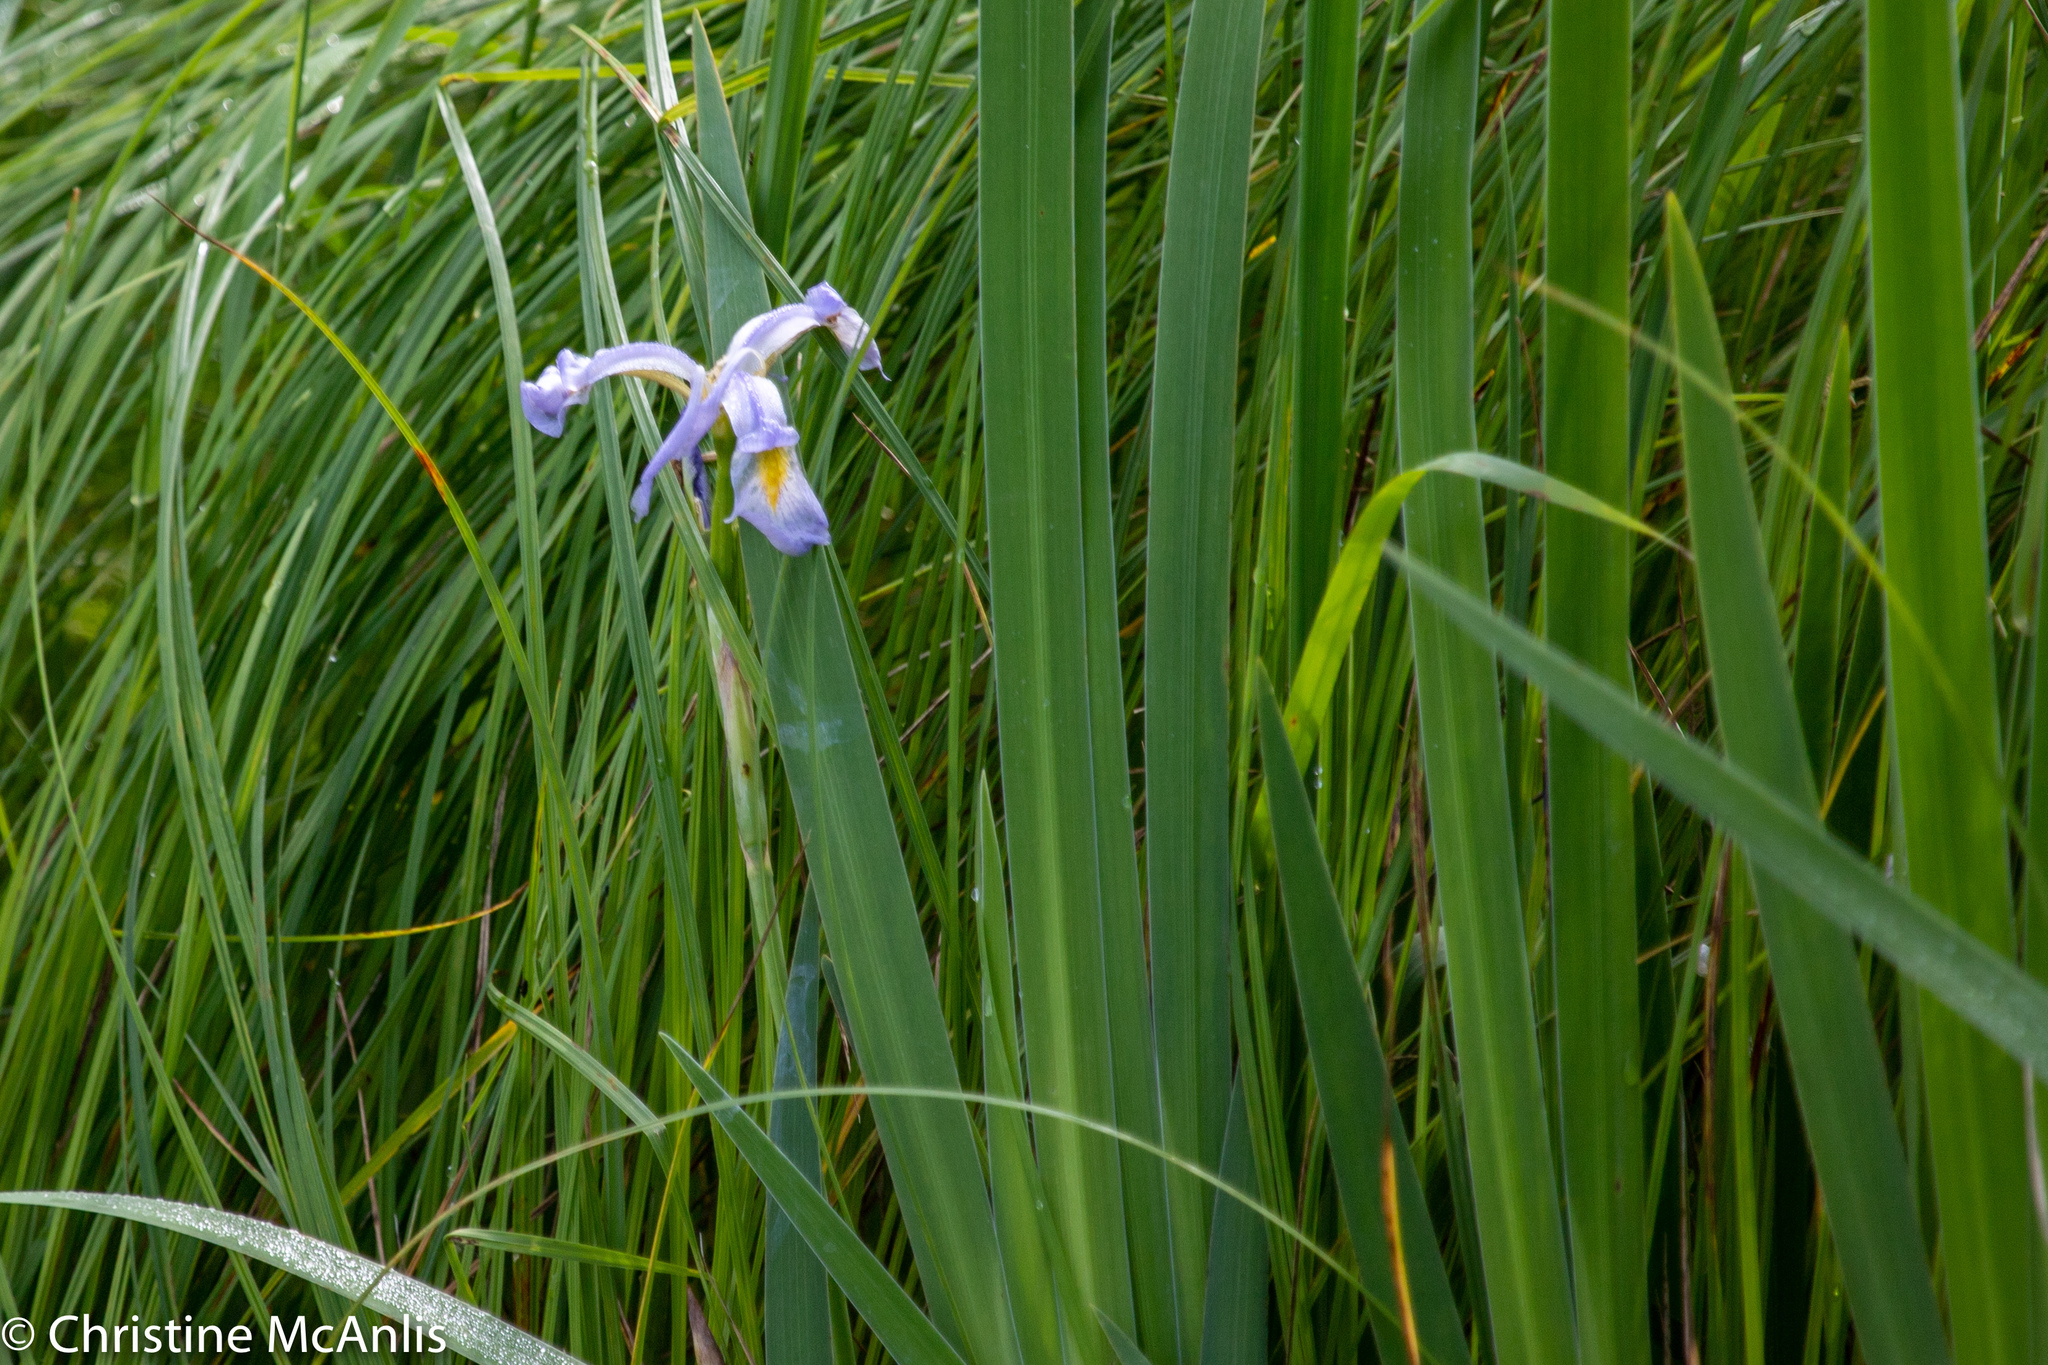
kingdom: Plantae
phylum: Tracheophyta
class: Liliopsida
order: Asparagales
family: Iridaceae
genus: Iris
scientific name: Iris virginica
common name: Southern blue flag
